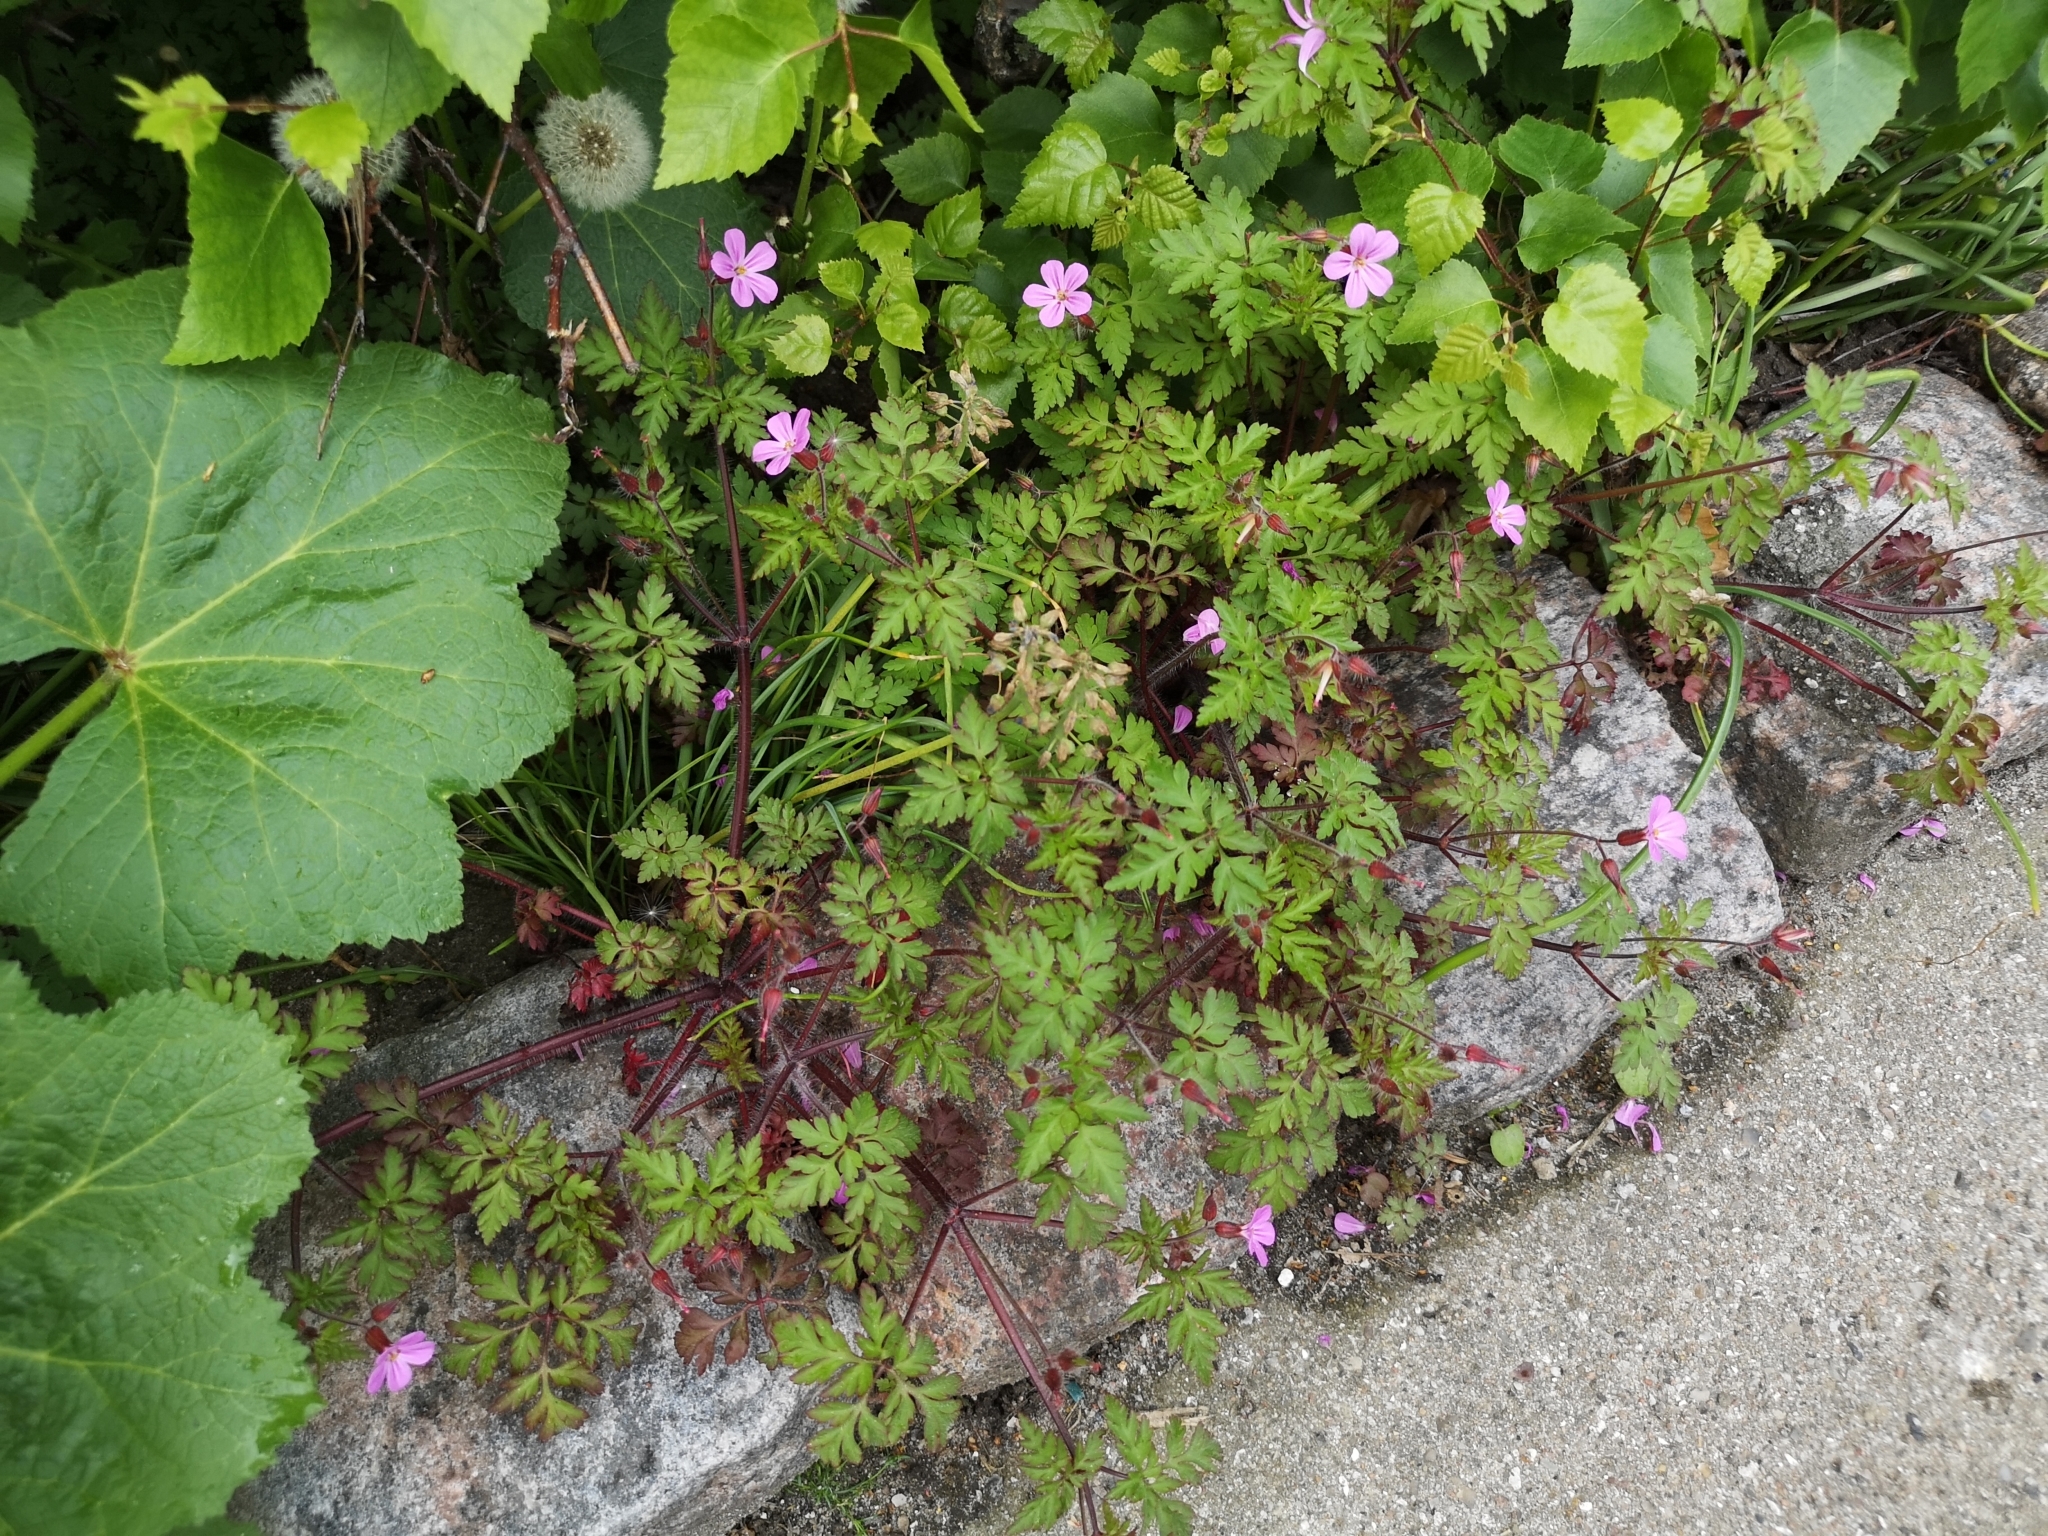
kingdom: Plantae
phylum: Tracheophyta
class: Magnoliopsida
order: Geraniales
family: Geraniaceae
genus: Geranium
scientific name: Geranium robertianum
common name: Herb-robert
